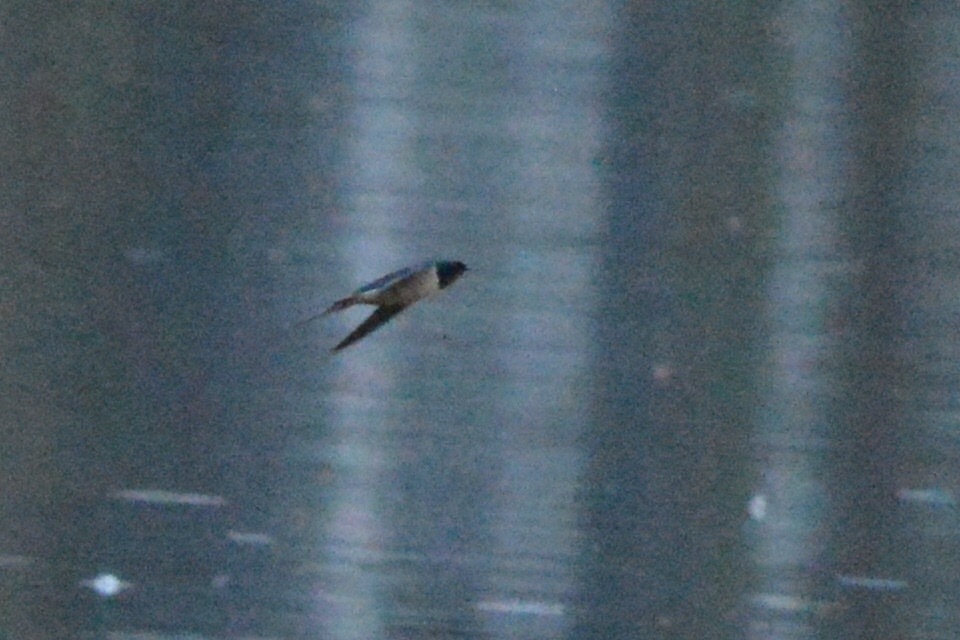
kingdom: Animalia
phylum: Chordata
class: Aves
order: Passeriformes
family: Hirundinidae
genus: Hirundo
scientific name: Hirundo rustica
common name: Barn swallow
